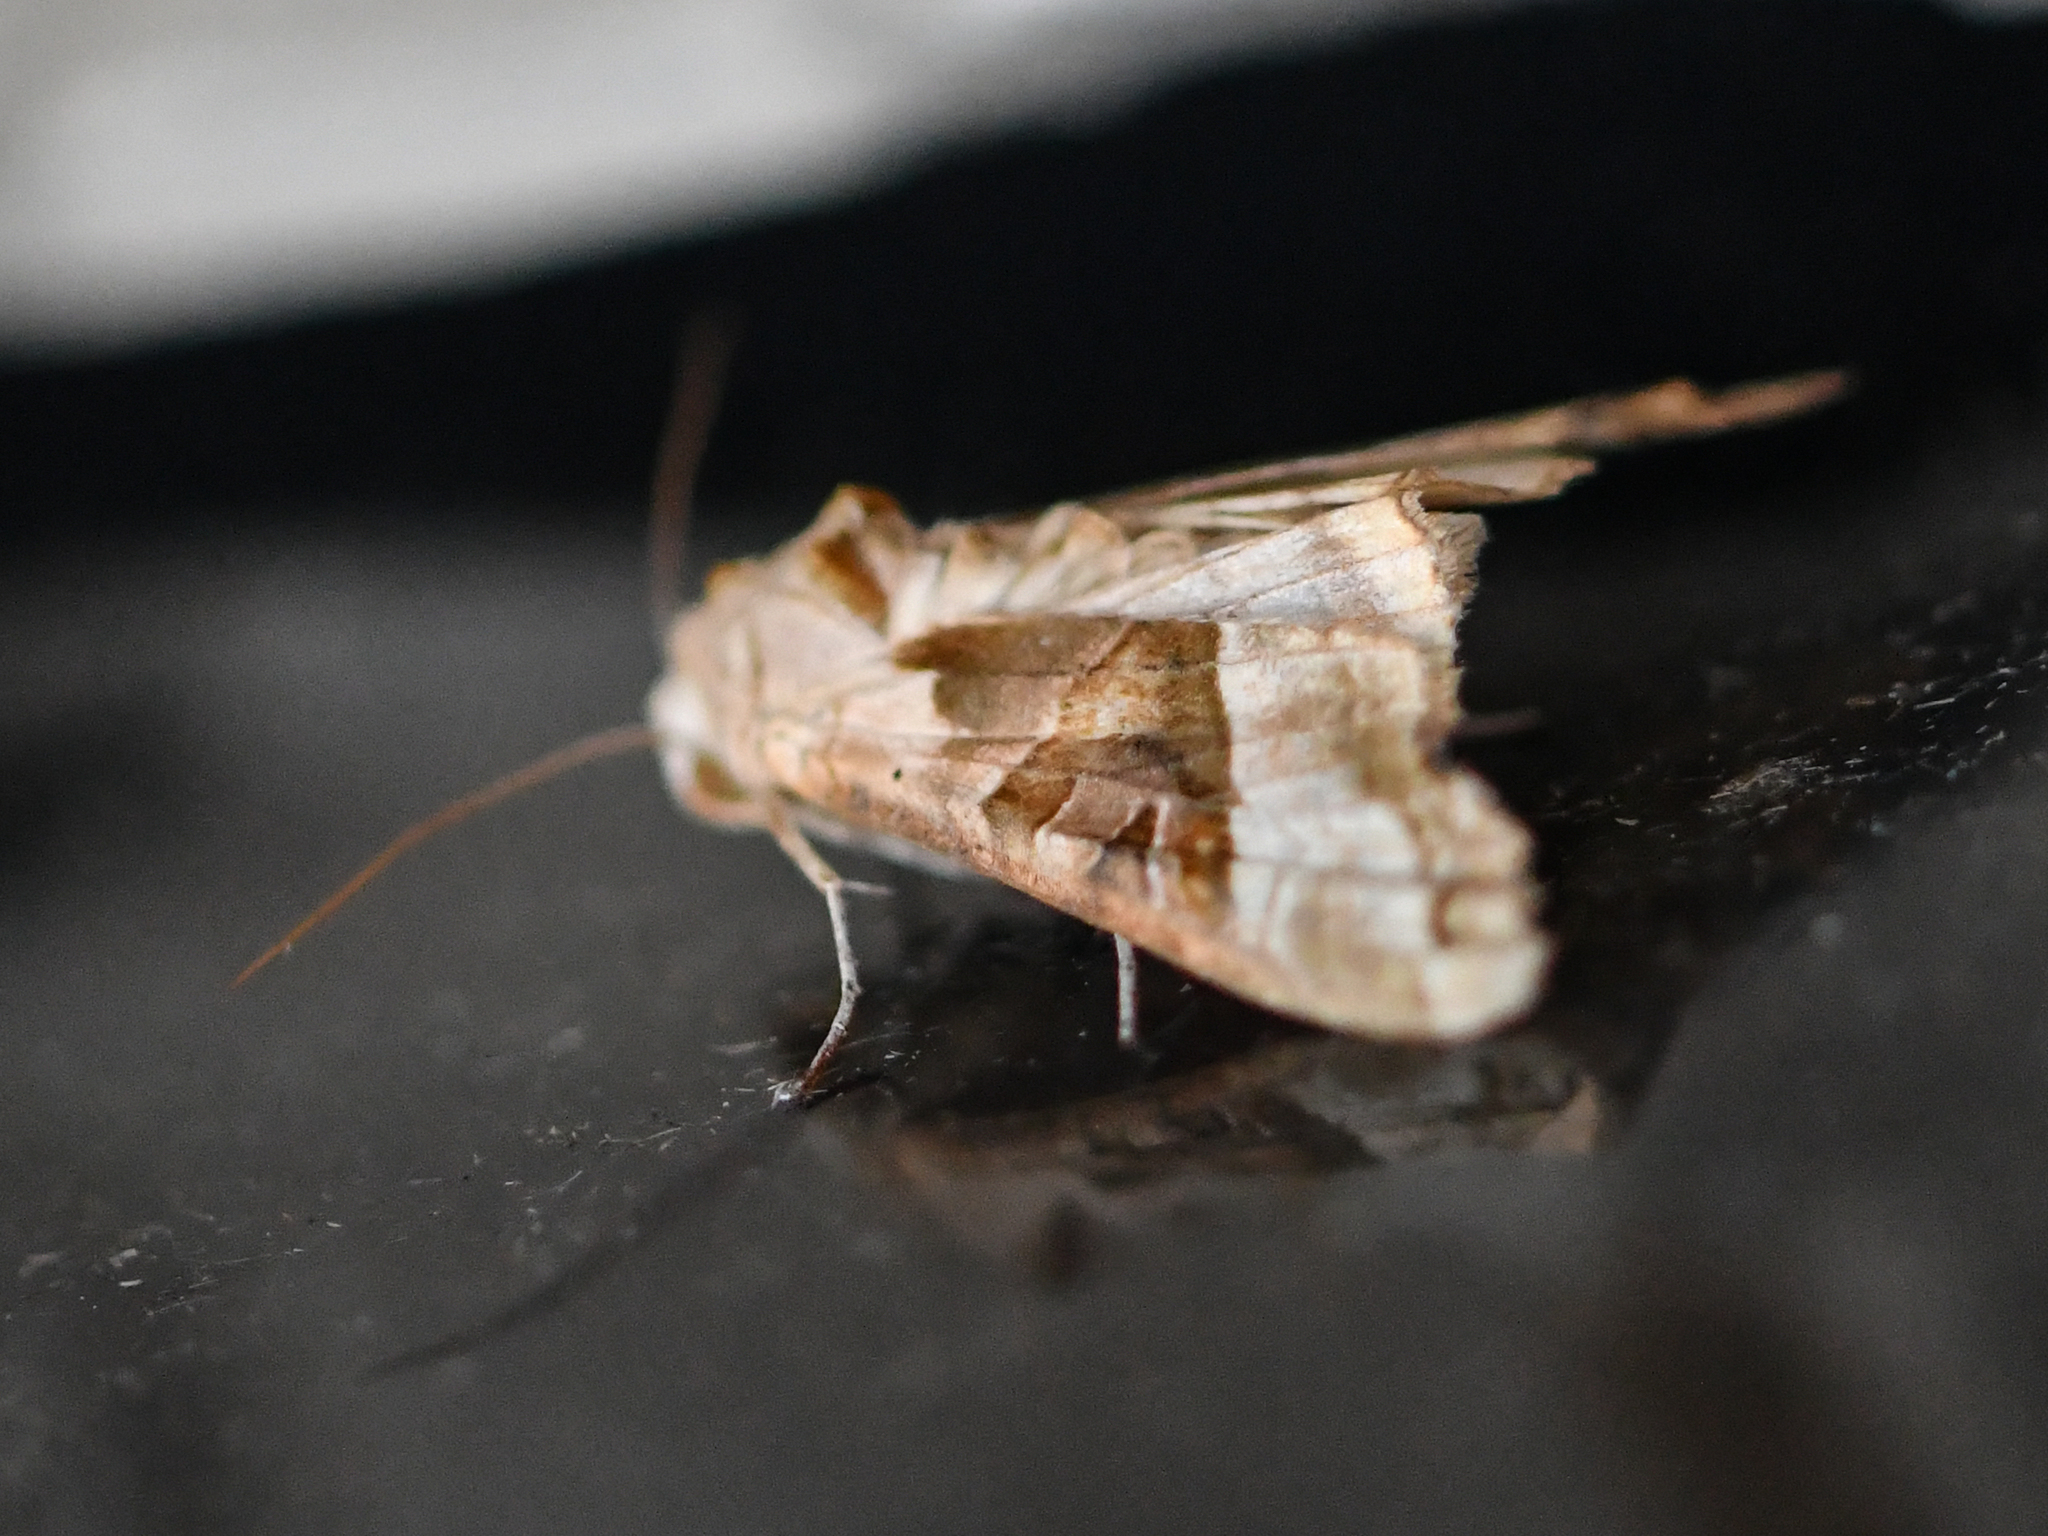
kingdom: Animalia
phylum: Arthropoda
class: Insecta
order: Lepidoptera
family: Noctuidae
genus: Phlogophora
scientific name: Phlogophora meticulosa
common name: Angle shades
